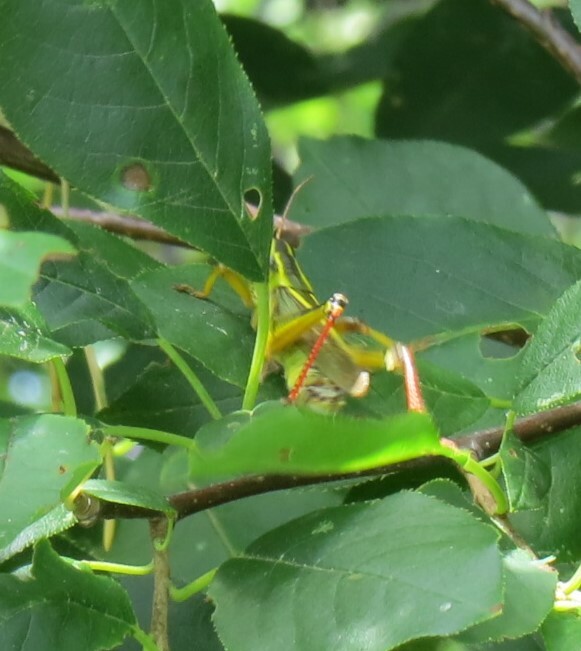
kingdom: Animalia
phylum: Arthropoda
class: Insecta
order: Orthoptera
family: Acrididae
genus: Melanoplus
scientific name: Melanoplus bivittatus
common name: Two-striped grasshopper
